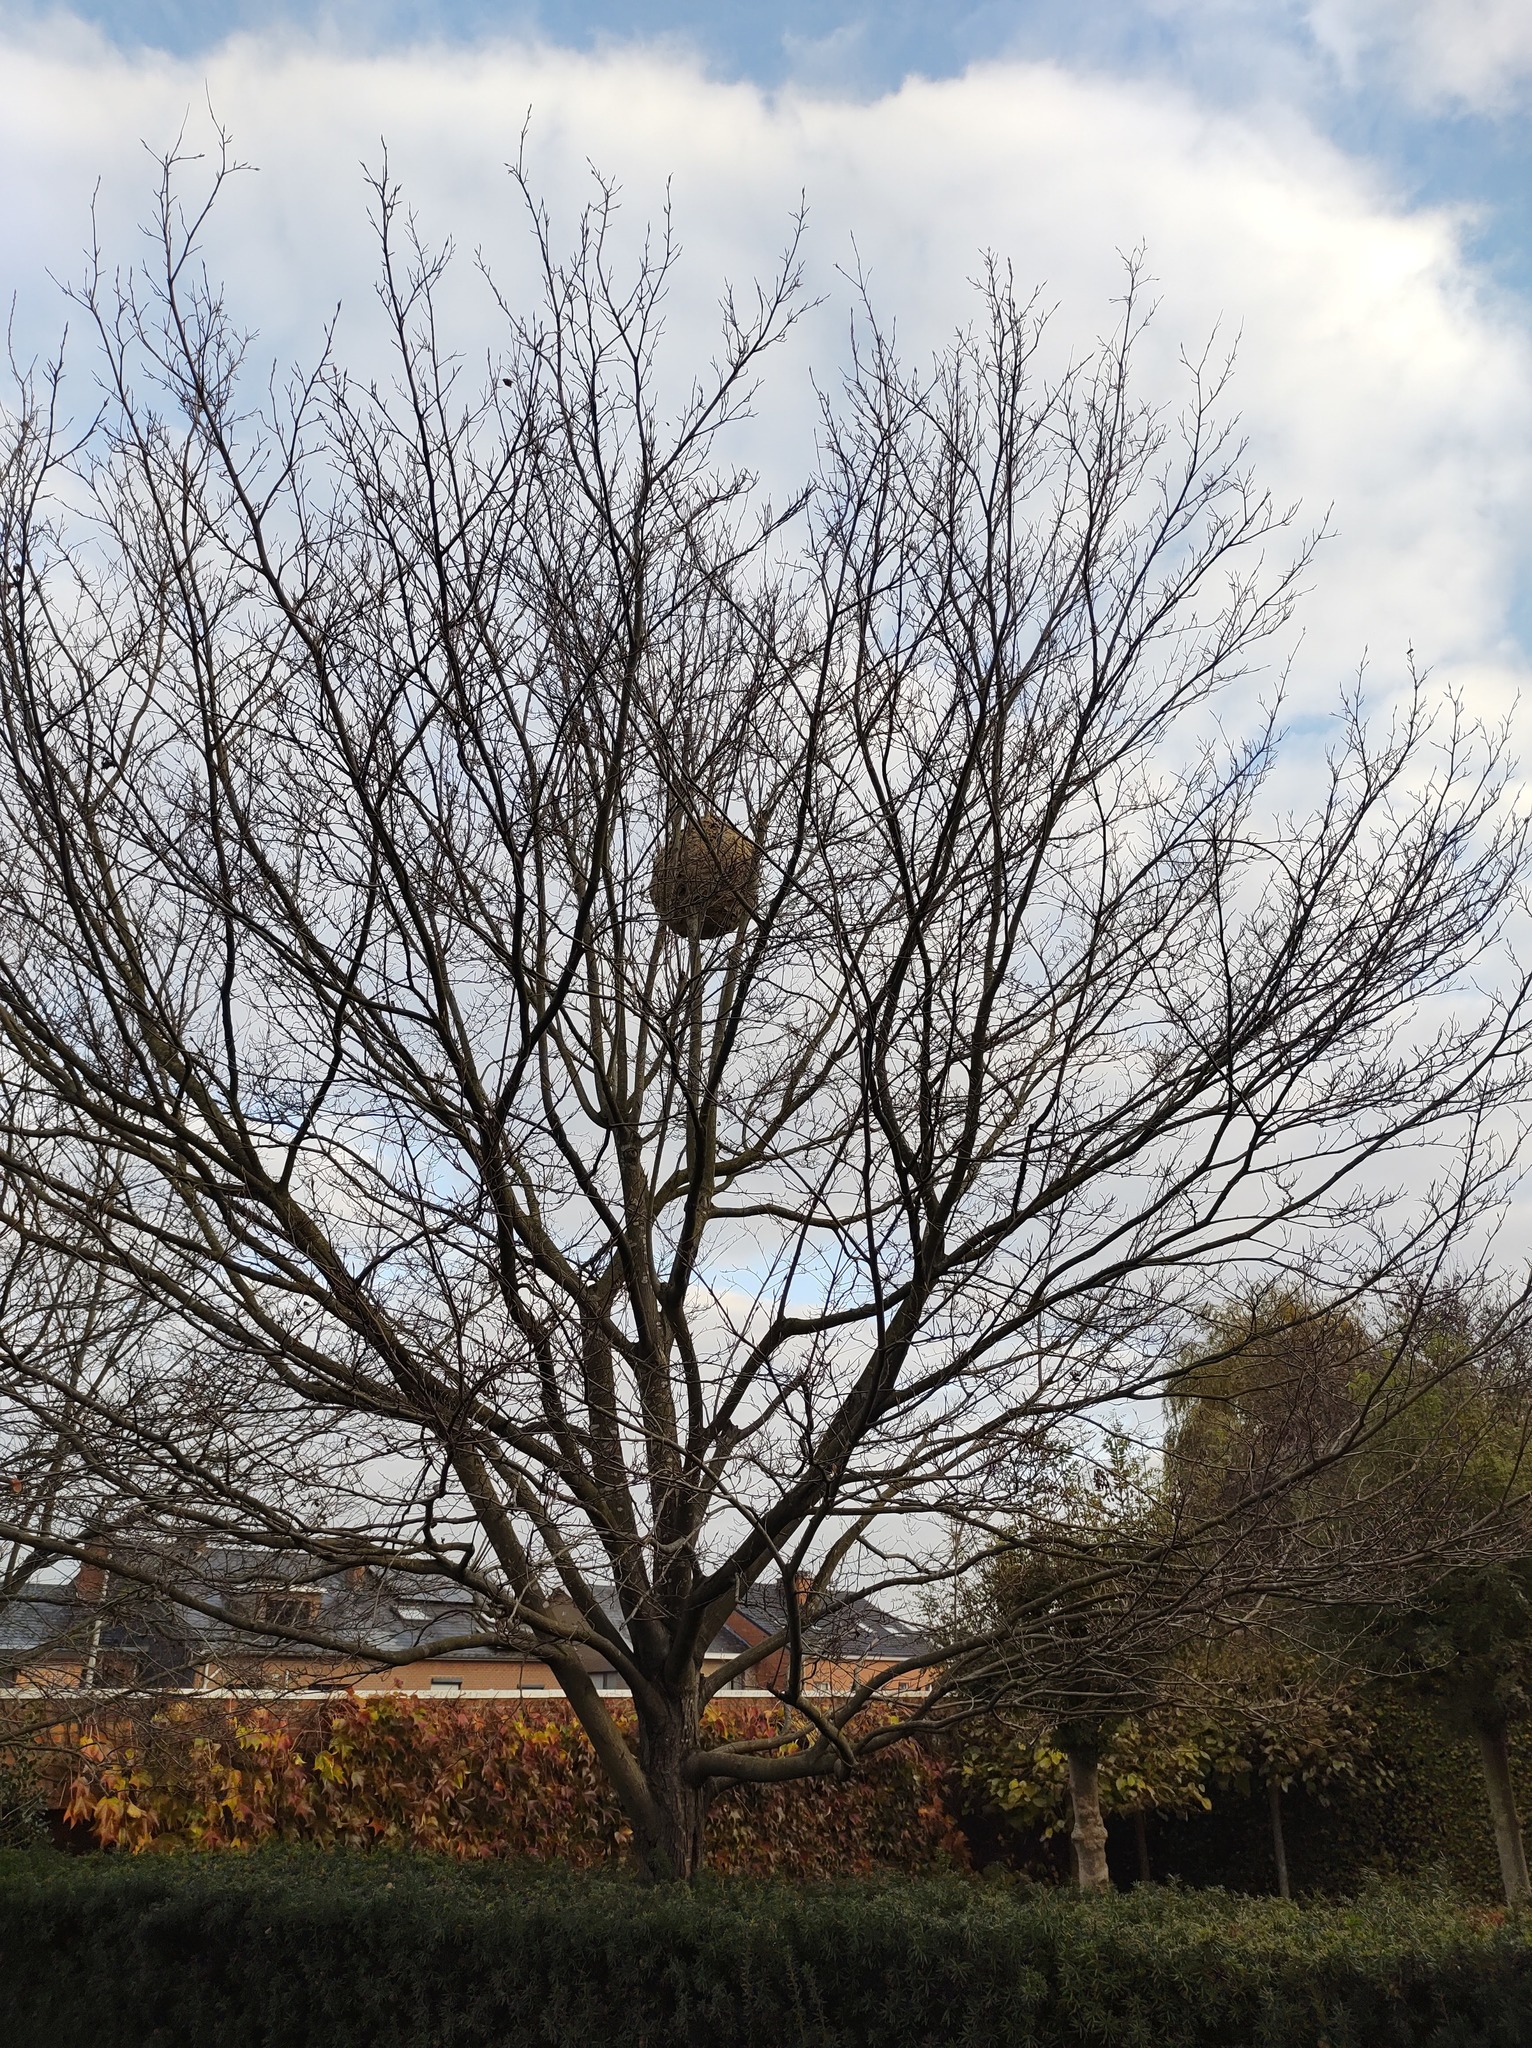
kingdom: Animalia
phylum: Arthropoda
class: Insecta
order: Hymenoptera
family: Vespidae
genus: Vespa
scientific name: Vespa velutina
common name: Asian hornet
